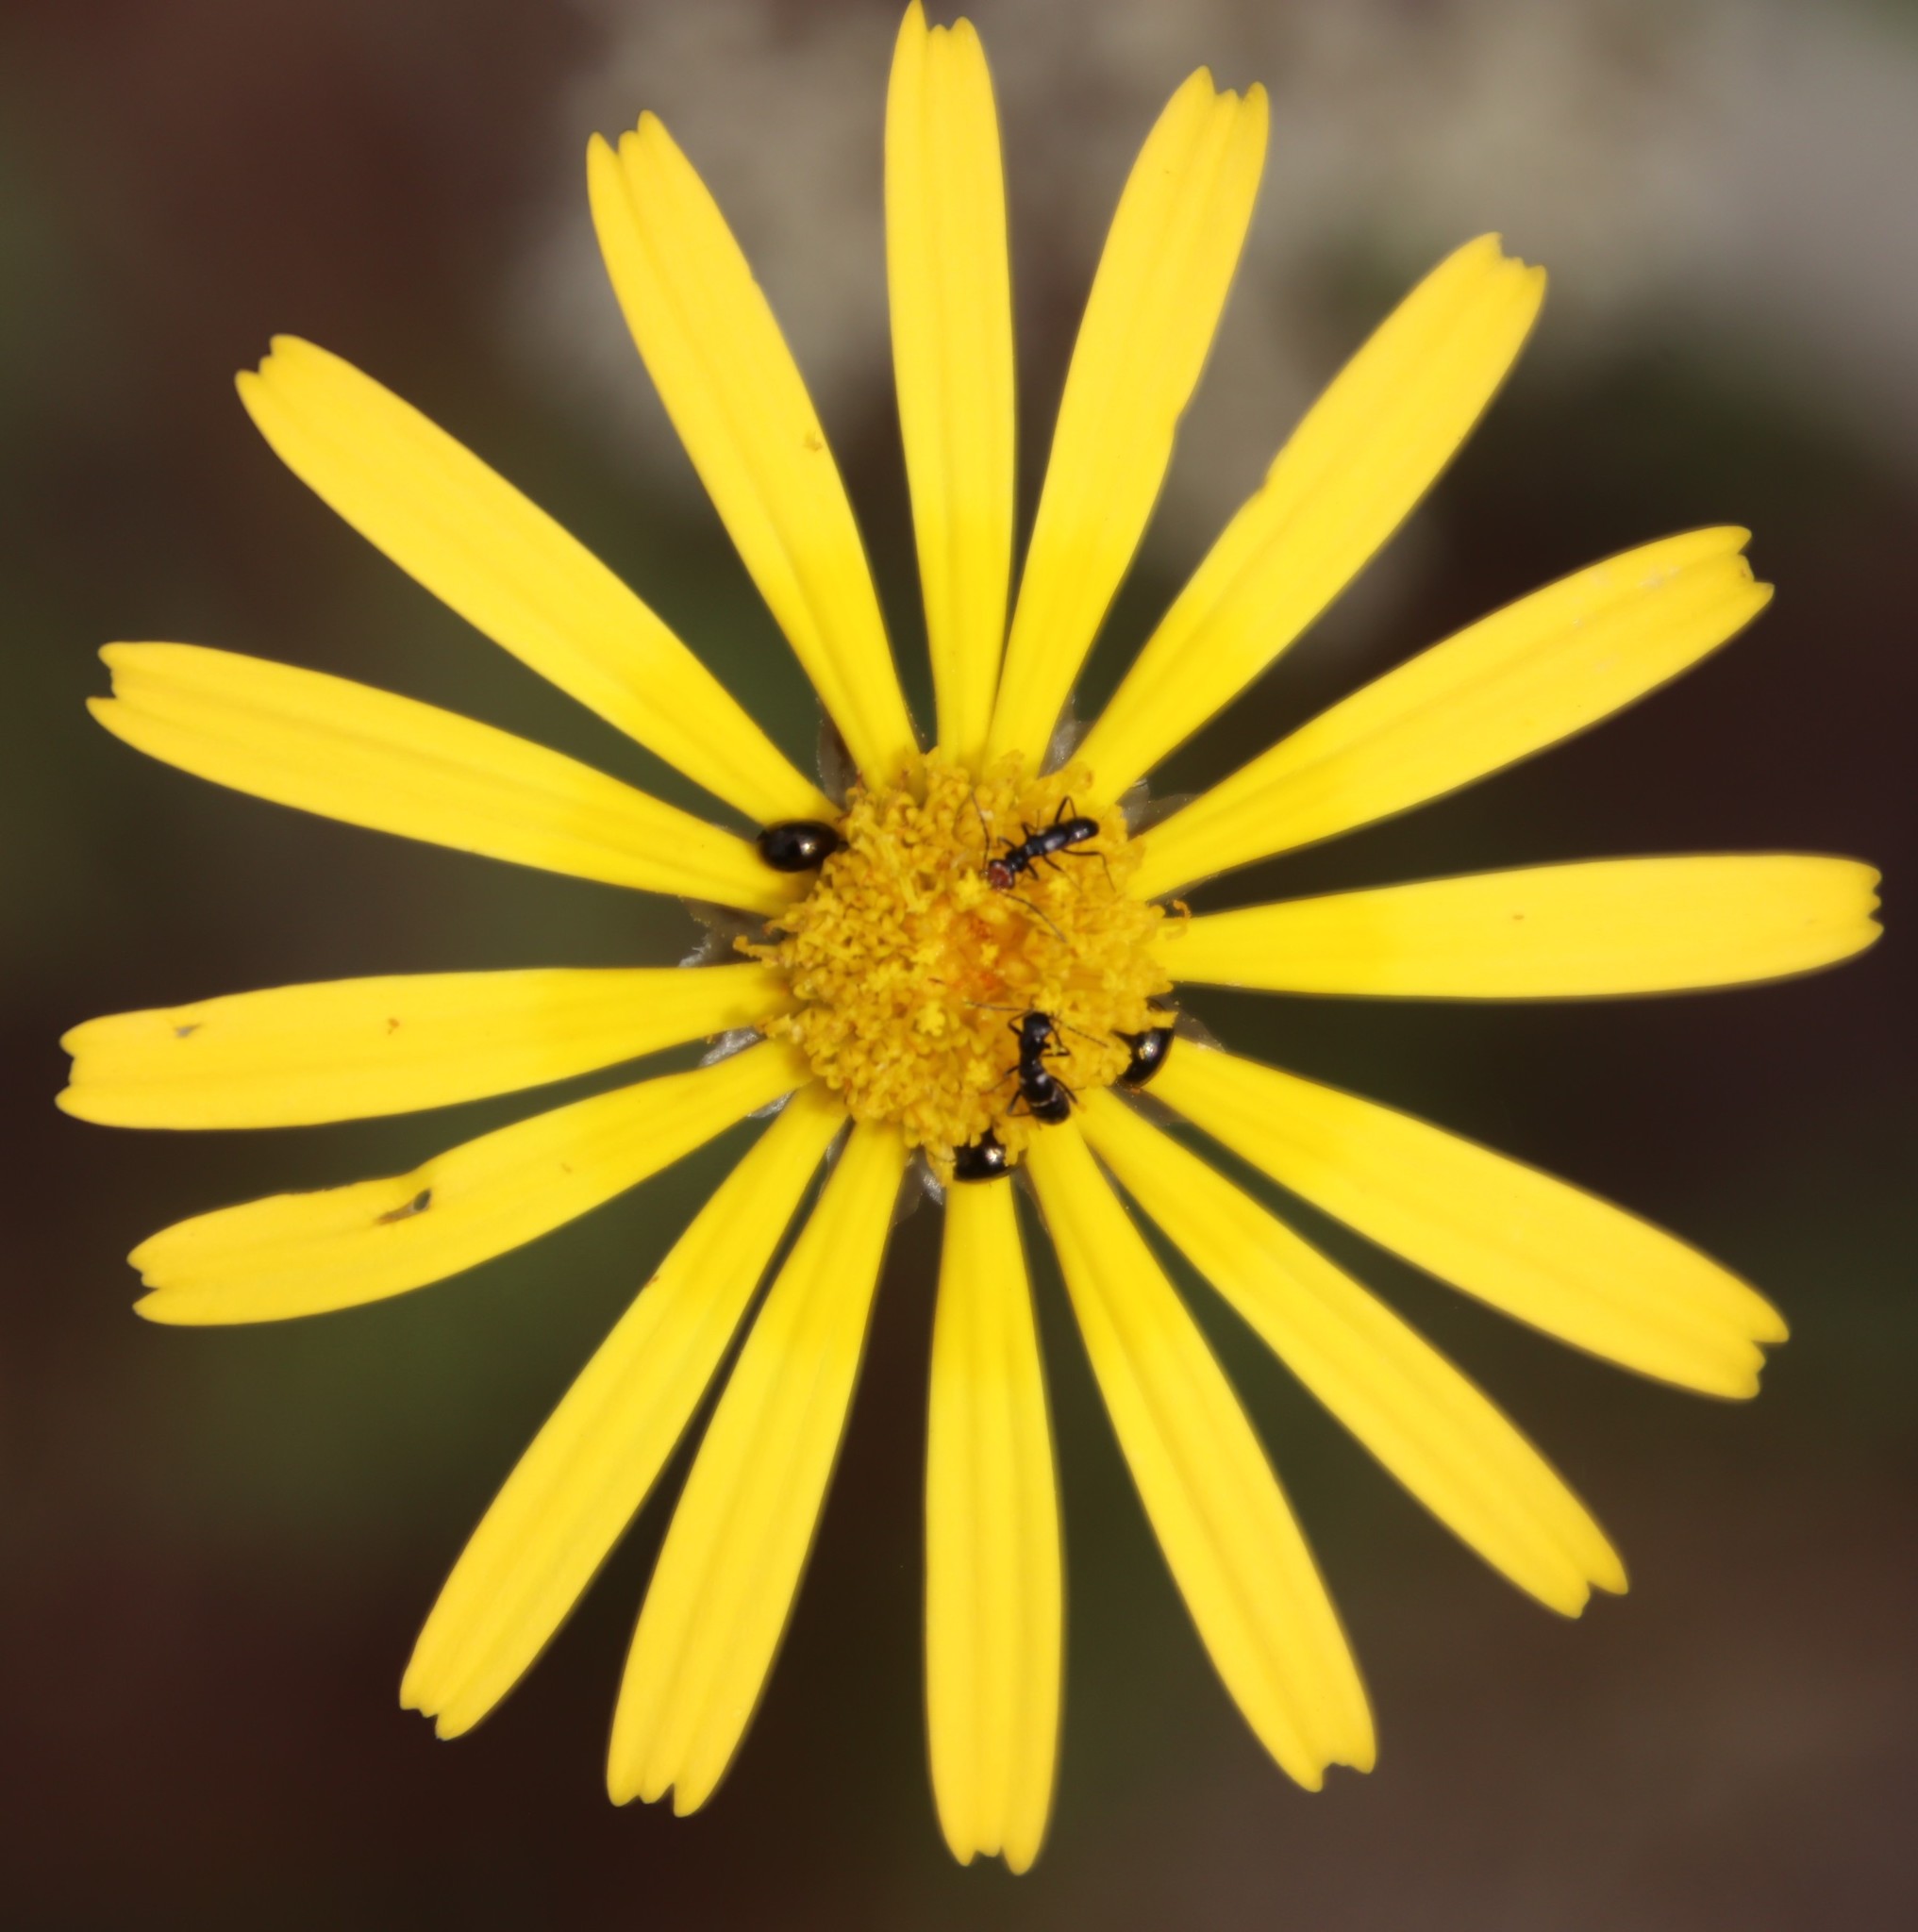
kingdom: Plantae
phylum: Tracheophyta
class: Magnoliopsida
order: Asterales
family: Asteraceae
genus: Ursinia
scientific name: Ursinia anthemoides
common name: Ursinia
